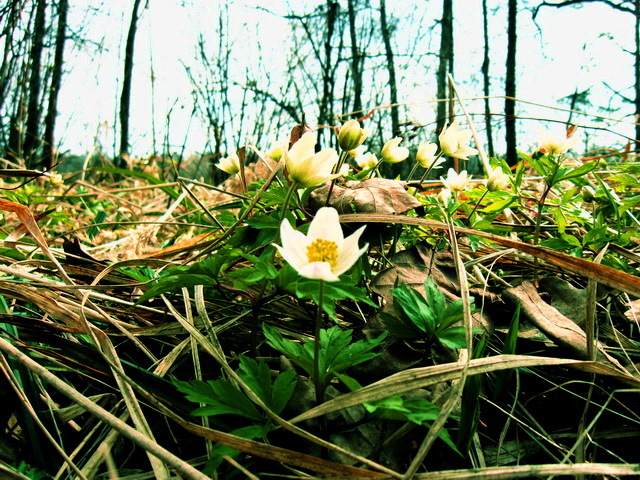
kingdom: Plantae
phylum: Tracheophyta
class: Magnoliopsida
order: Ranunculales
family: Ranunculaceae
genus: Anemone
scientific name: Anemone nemorosa
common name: Wood anemone
